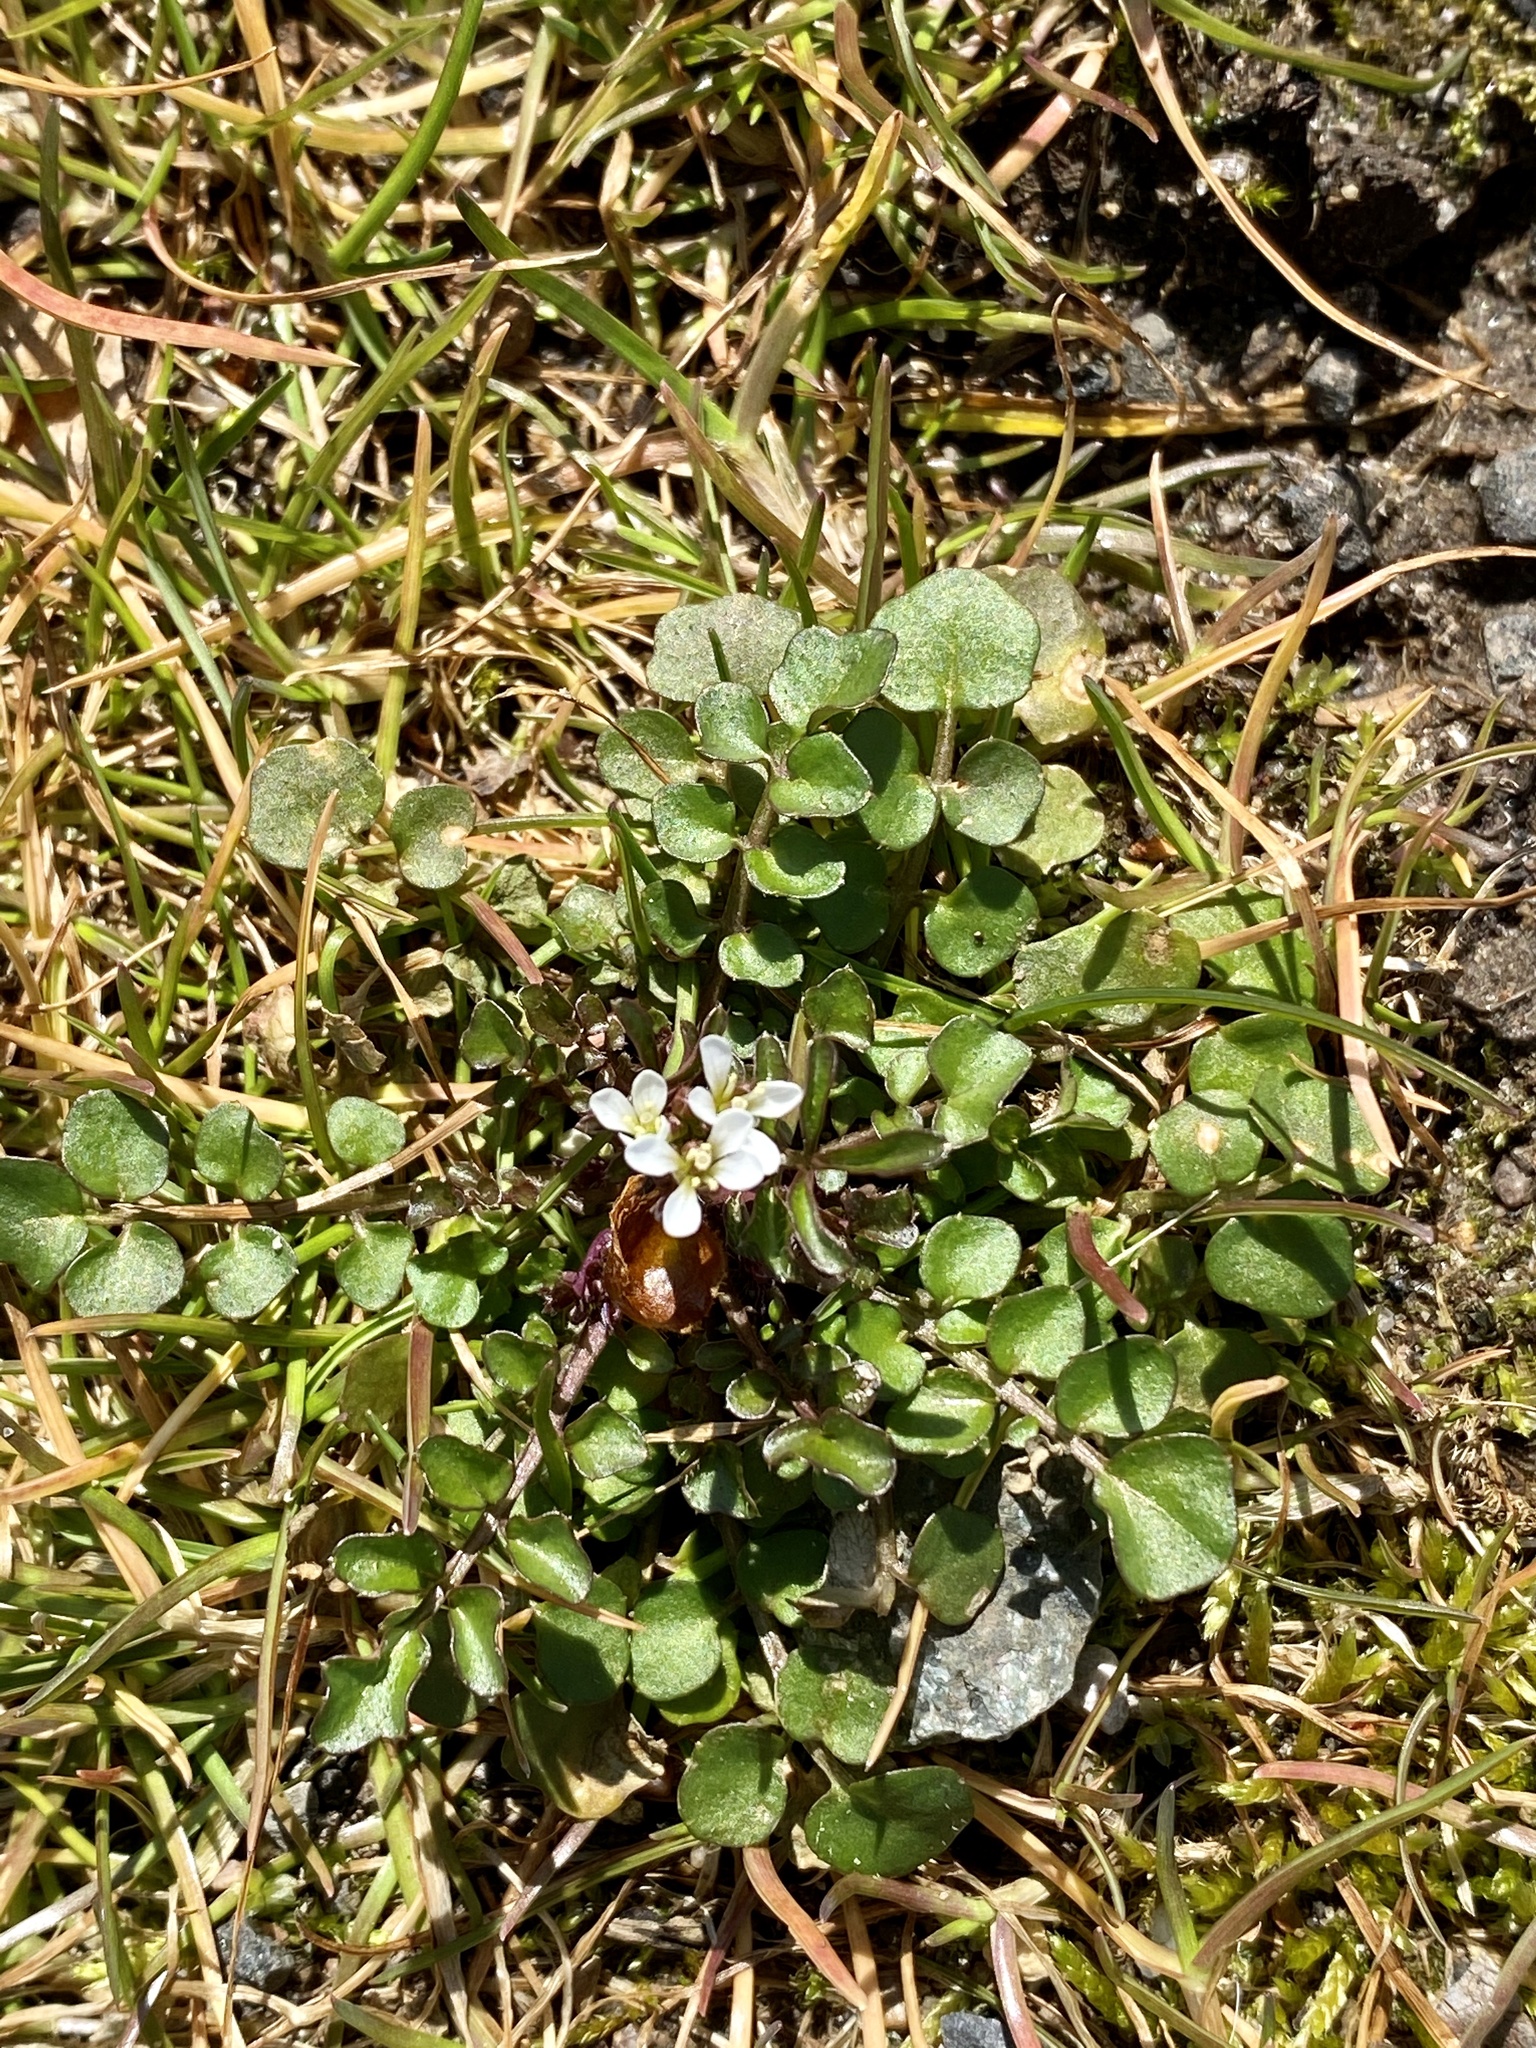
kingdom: Plantae
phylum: Tracheophyta
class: Magnoliopsida
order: Brassicales
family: Brassicaceae
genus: Cardamine
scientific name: Cardamine hirsuta
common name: Hairy bittercress
